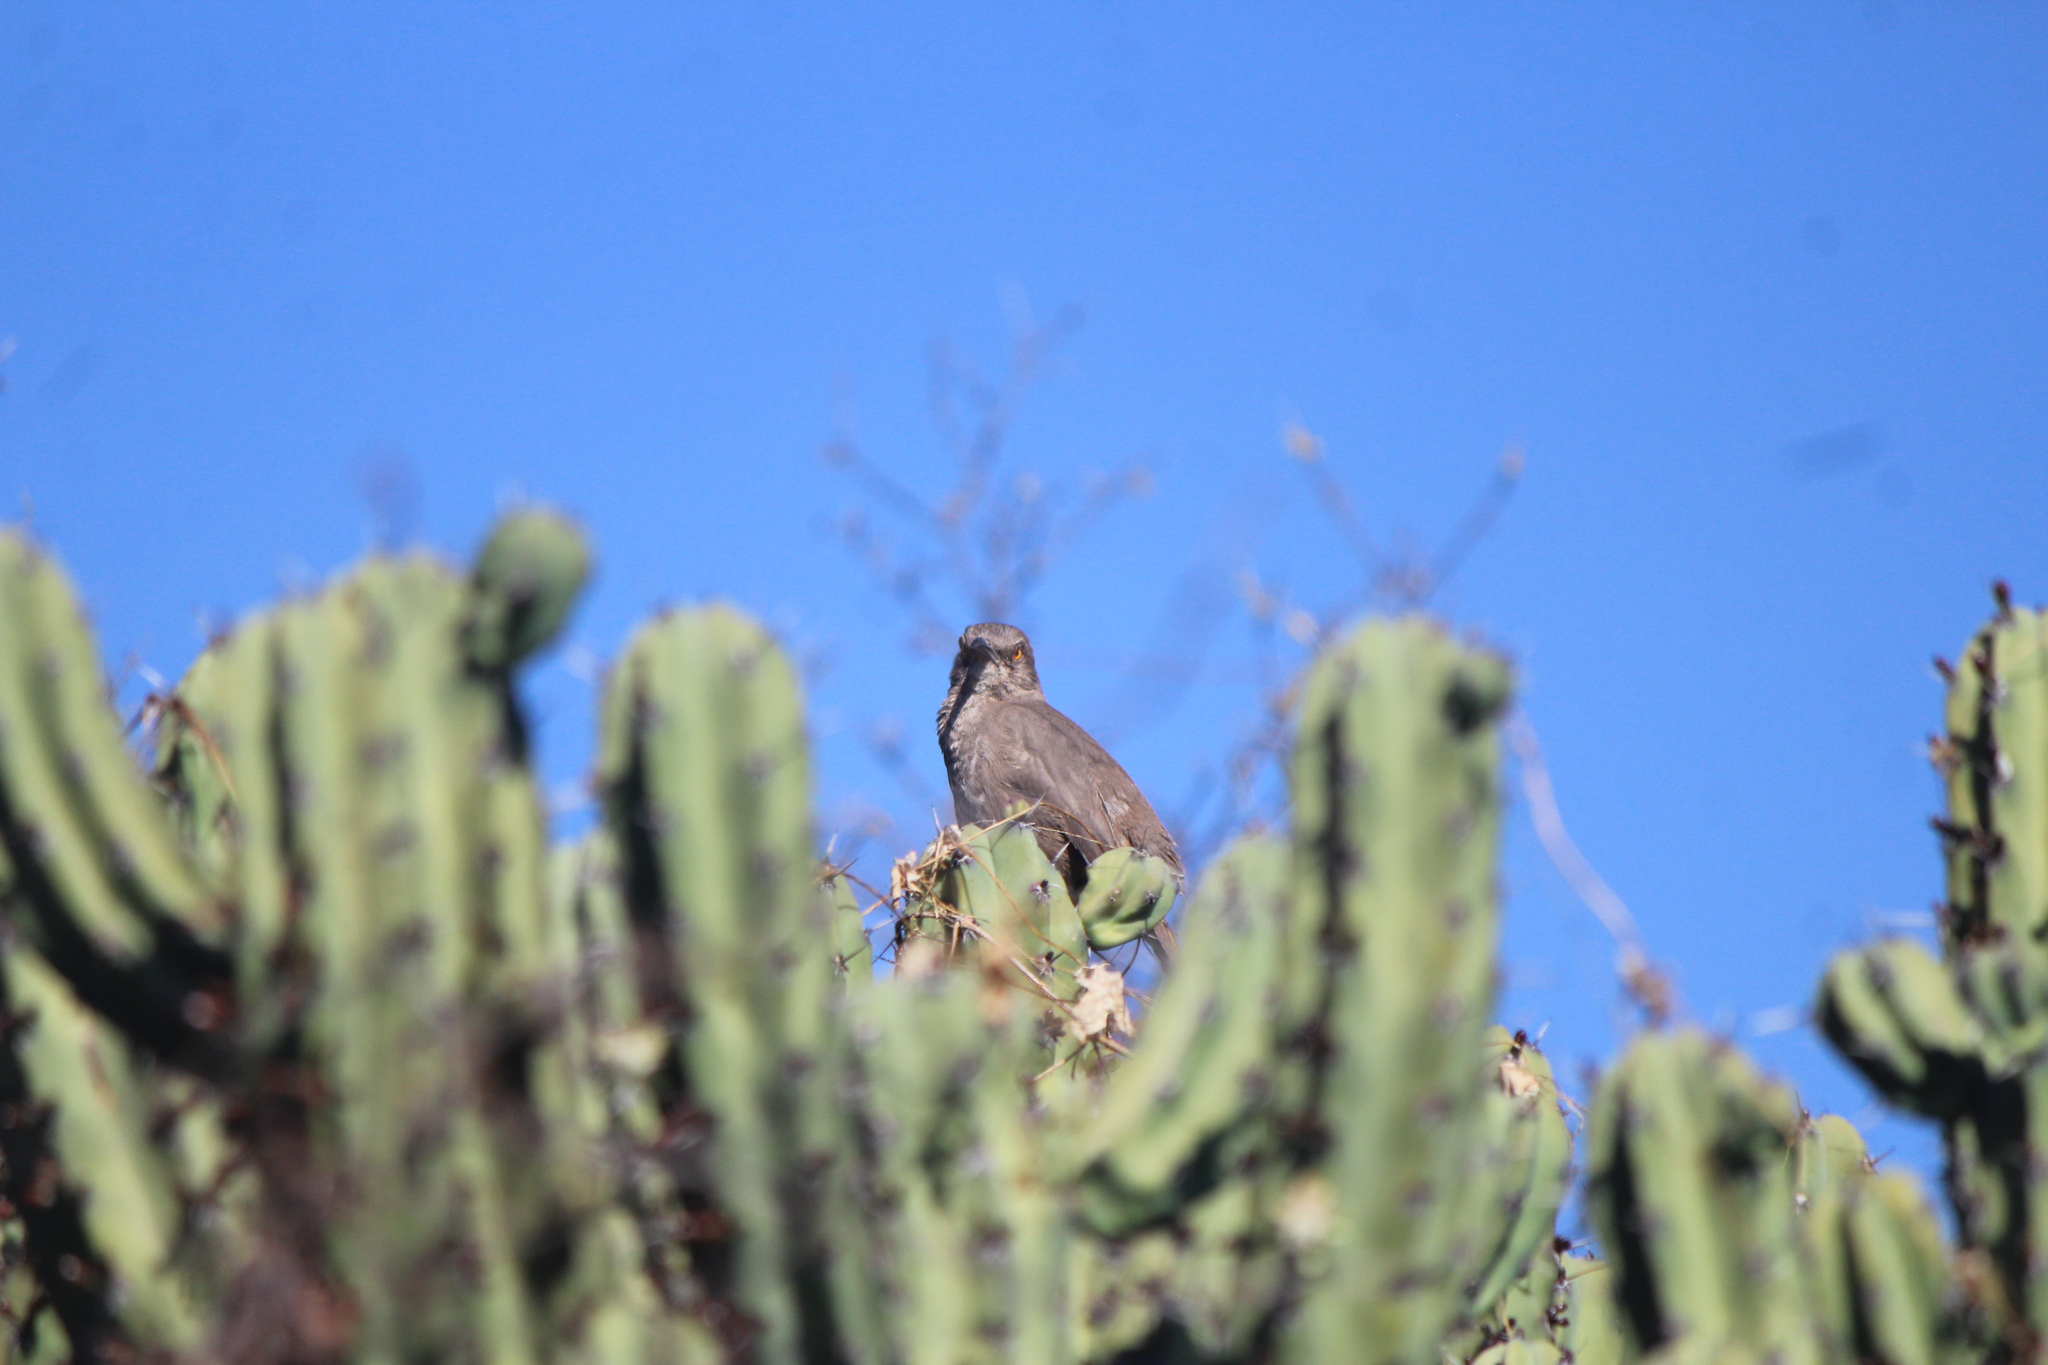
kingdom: Animalia
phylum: Chordata
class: Aves
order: Passeriformes
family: Mimidae
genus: Toxostoma
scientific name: Toxostoma curvirostre
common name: Curve-billed thrasher
